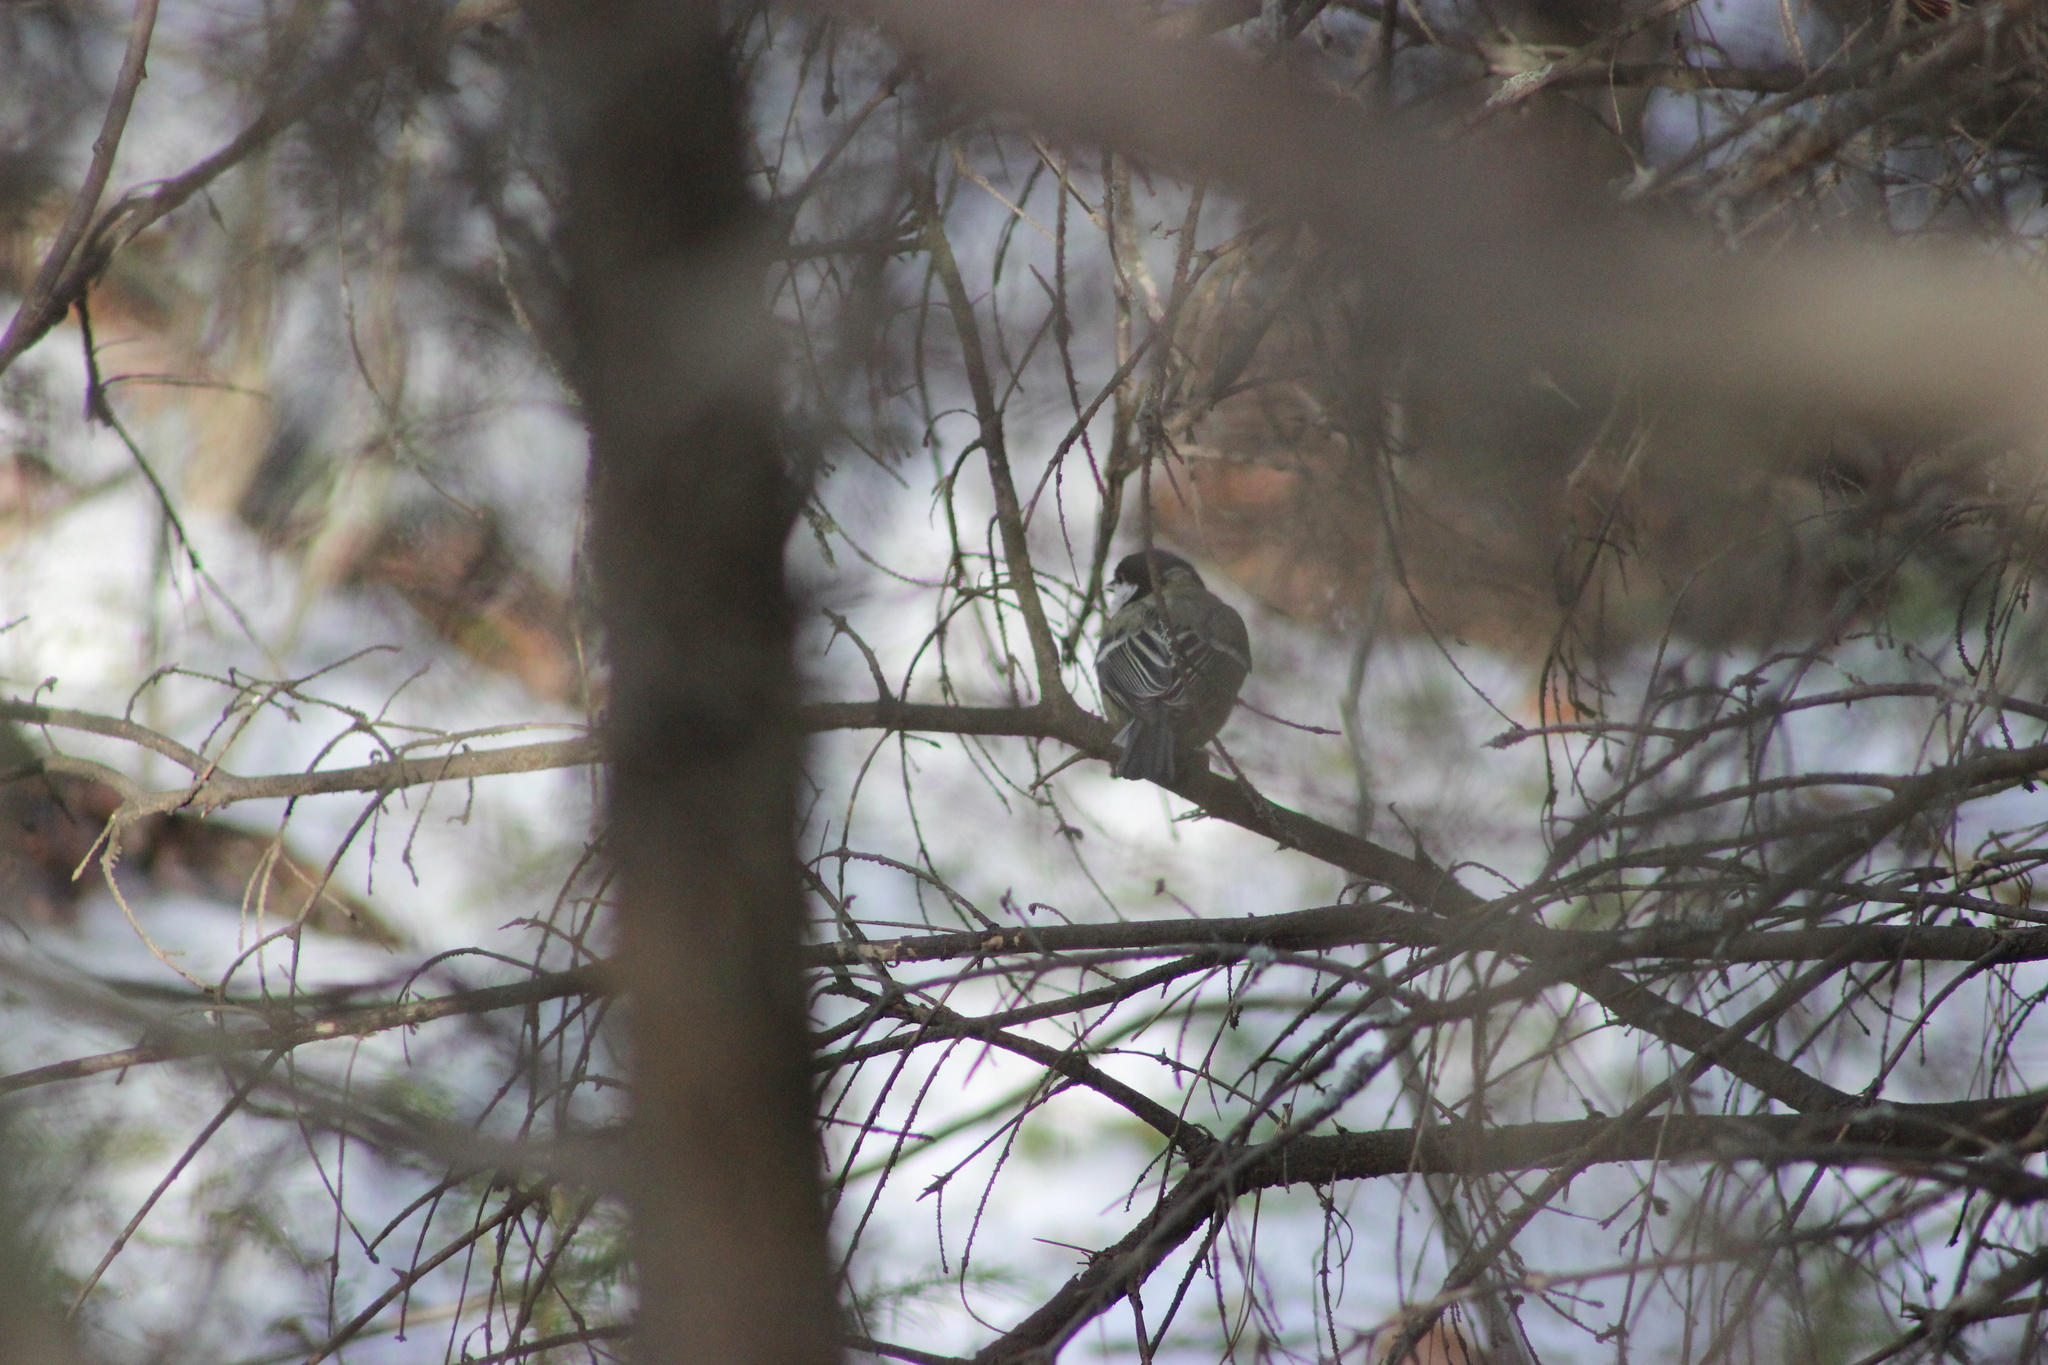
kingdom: Animalia
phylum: Chordata
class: Aves
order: Passeriformes
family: Paridae
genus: Parus
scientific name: Parus major
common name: Great tit
